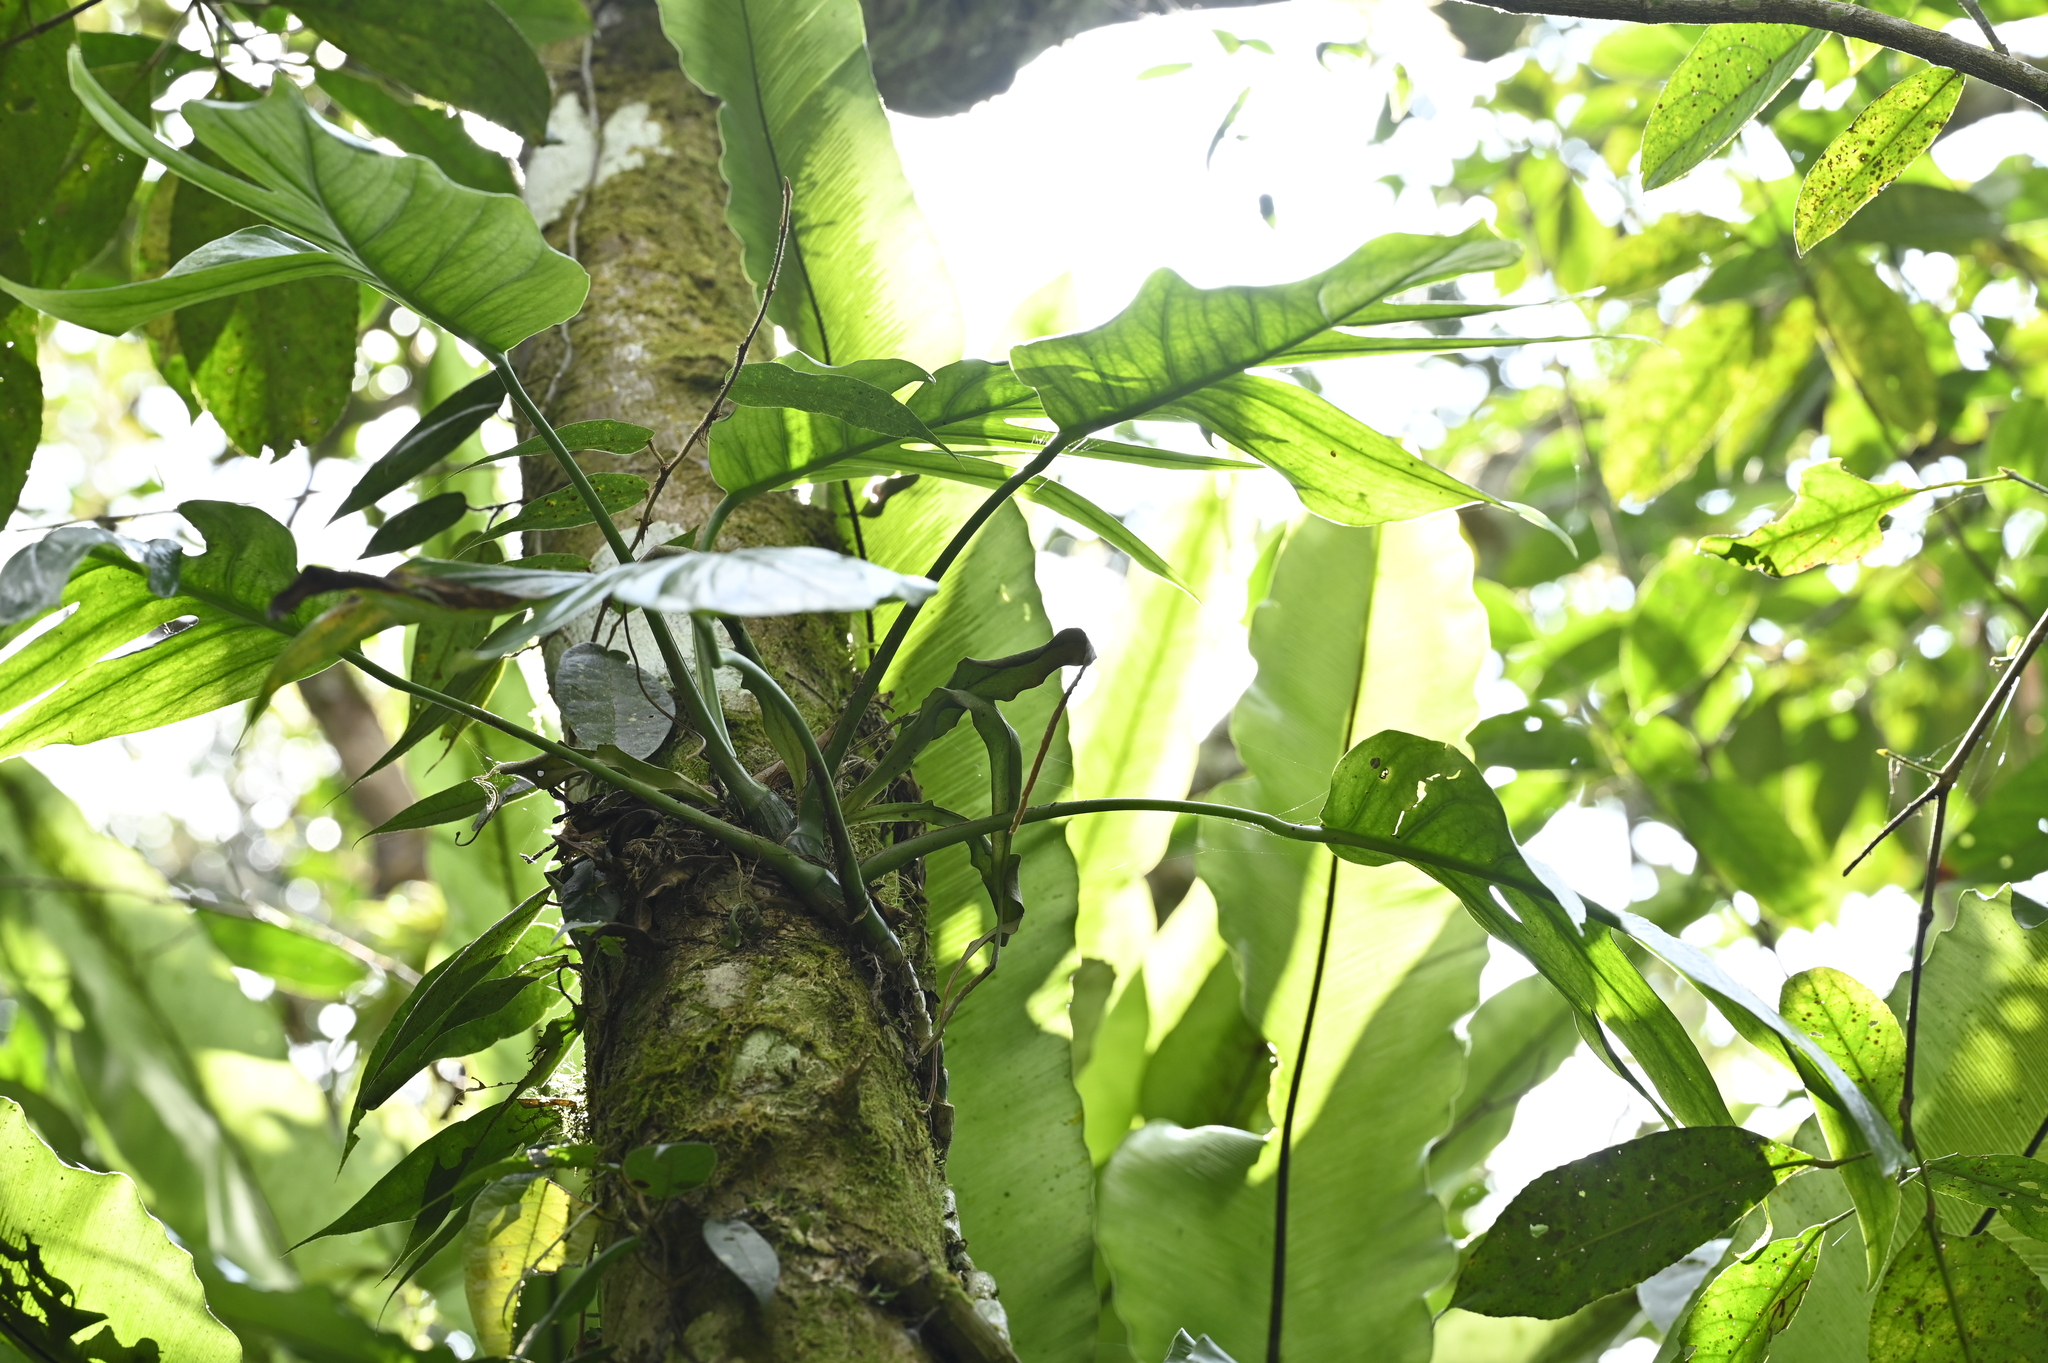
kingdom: Plantae
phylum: Tracheophyta
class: Polypodiopsida
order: Polypodiales
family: Polypodiaceae
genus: Lepisorus
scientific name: Lepisorus mucronatus
